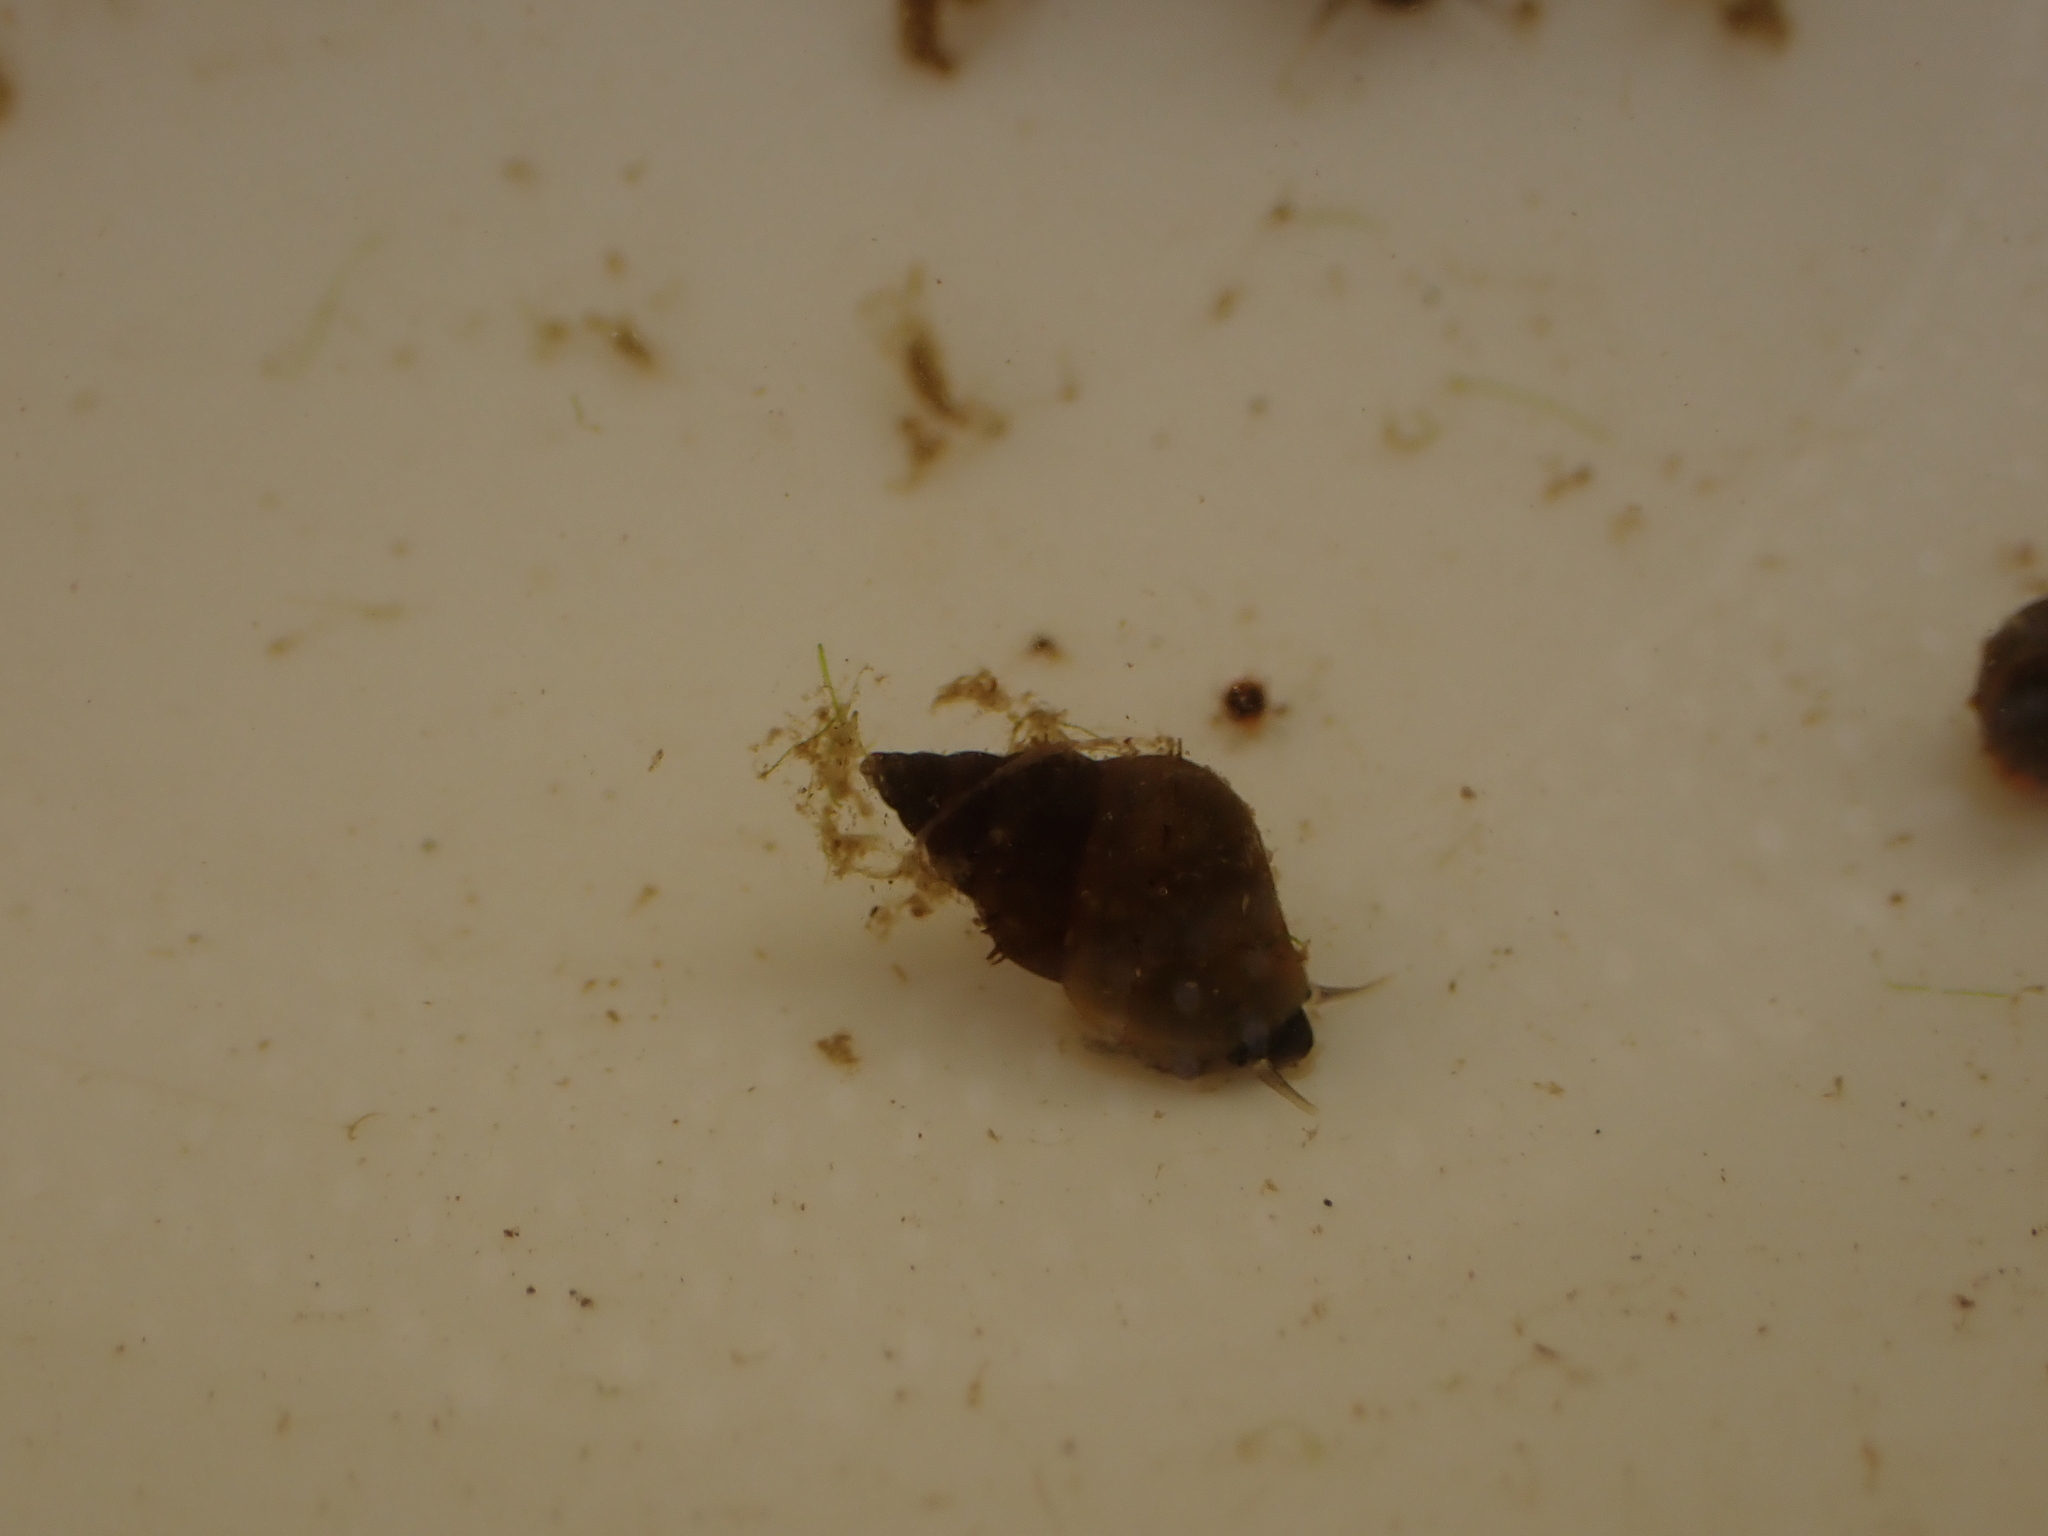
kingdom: Animalia
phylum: Mollusca
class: Gastropoda
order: Littorinimorpha
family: Tateidae
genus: Potamopyrgus
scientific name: Potamopyrgus antipodarum
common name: Jenkins' spire snail
